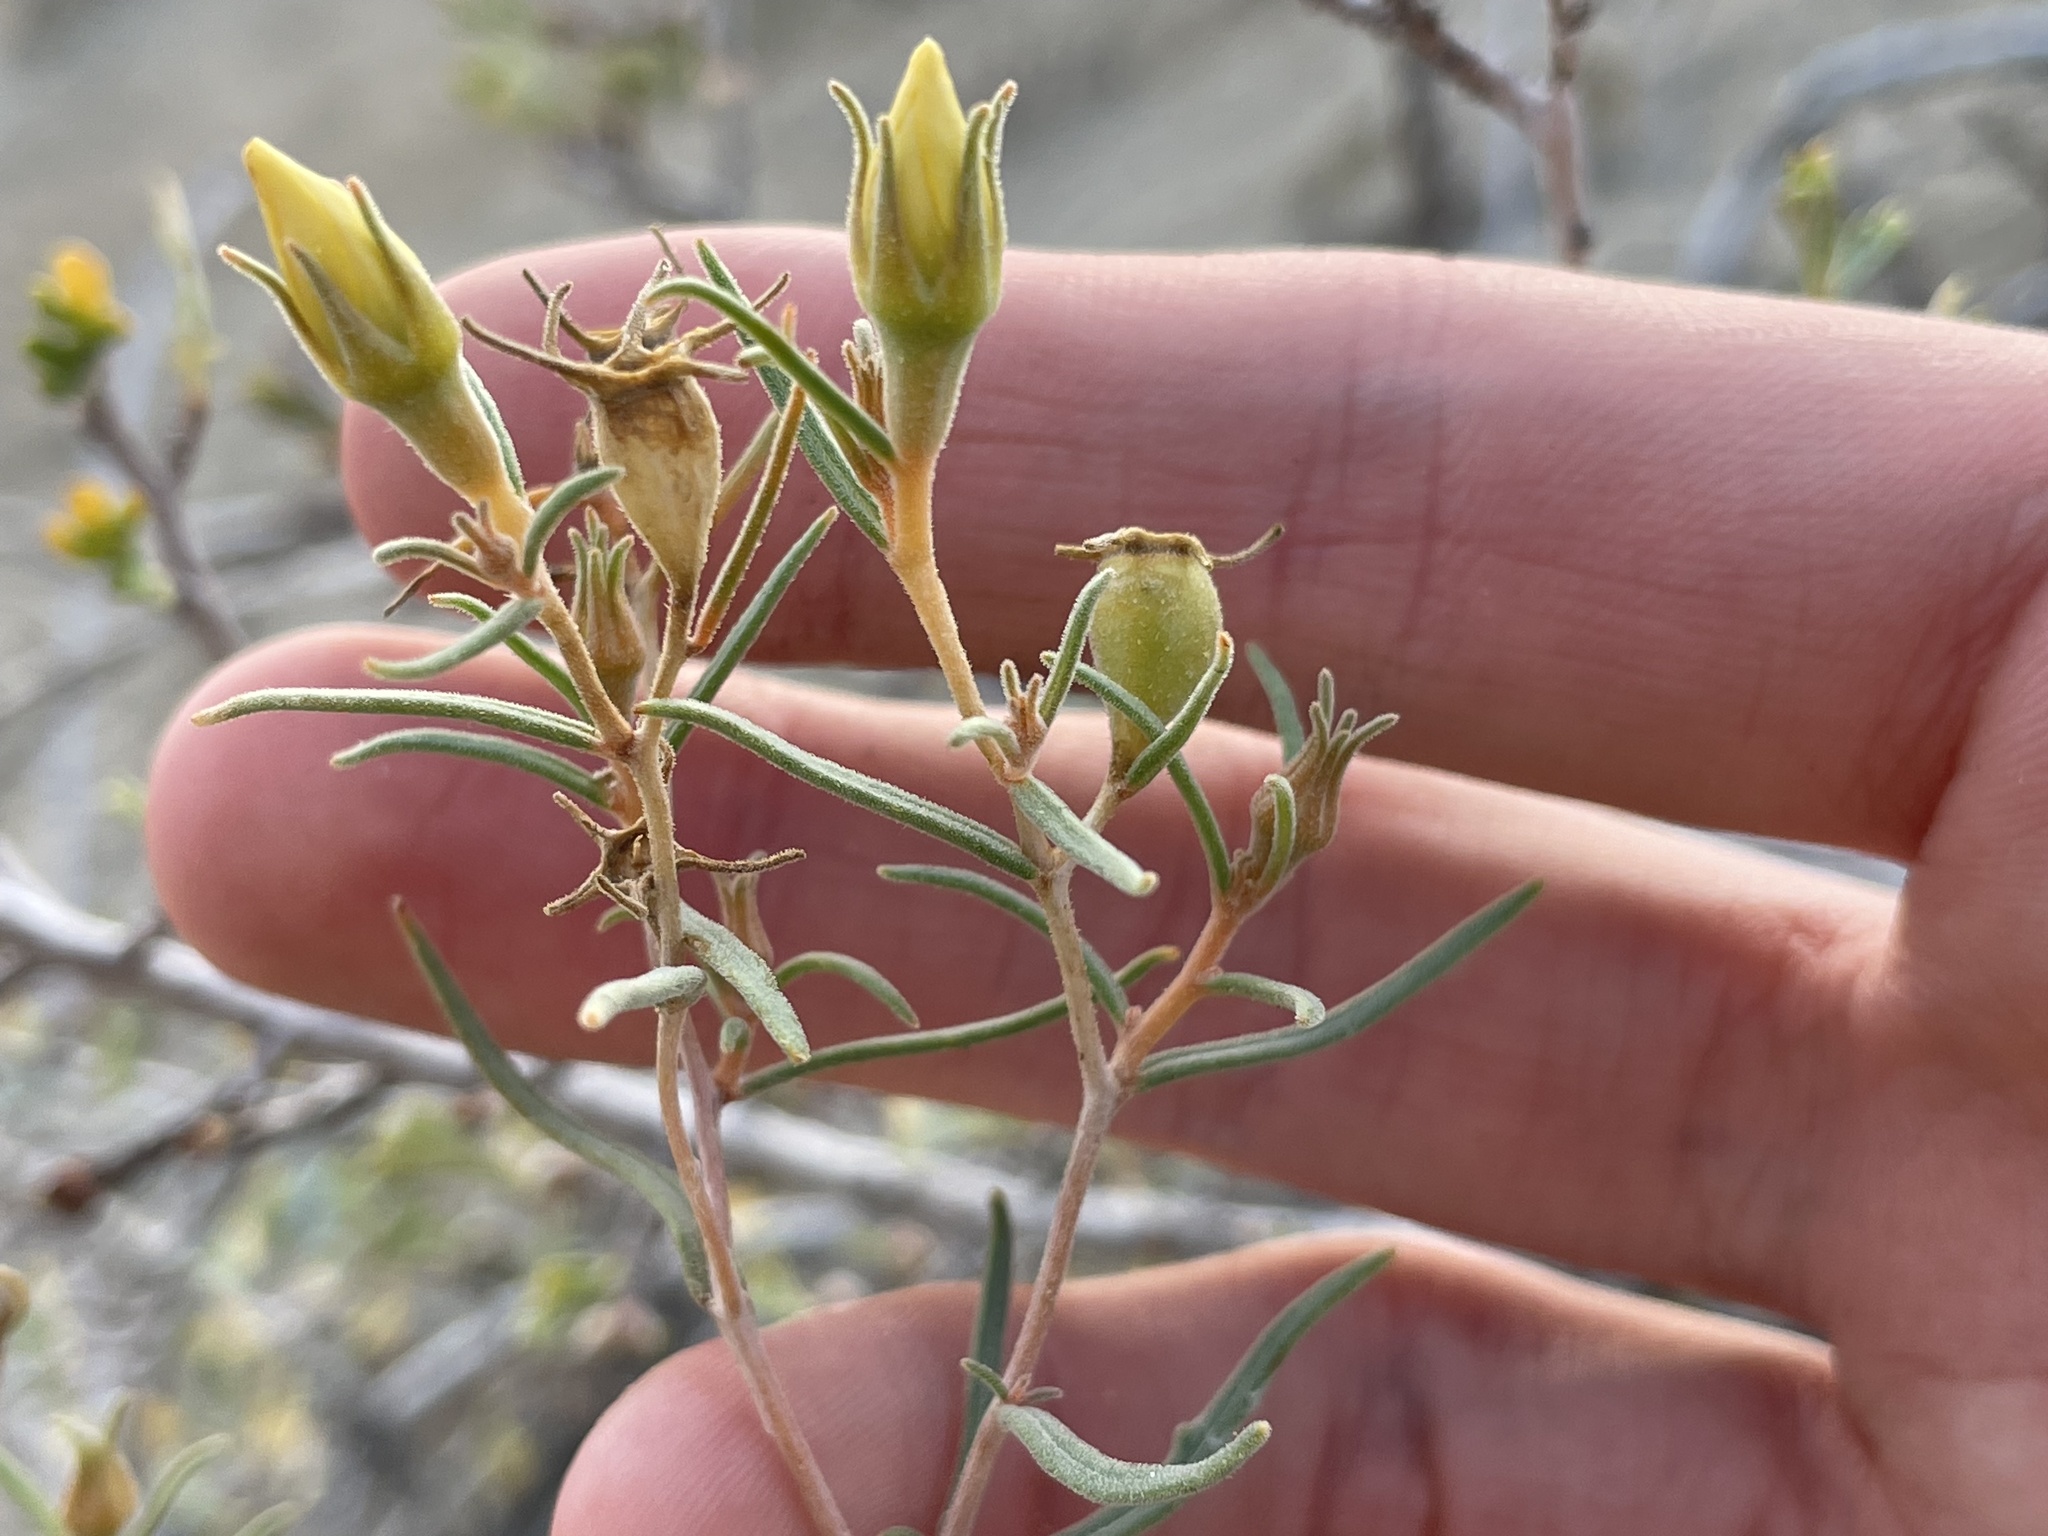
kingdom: Plantae
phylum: Tracheophyta
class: Magnoliopsida
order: Cornales
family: Loasaceae
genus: Mentzelia
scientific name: Mentzelia sivinskii
